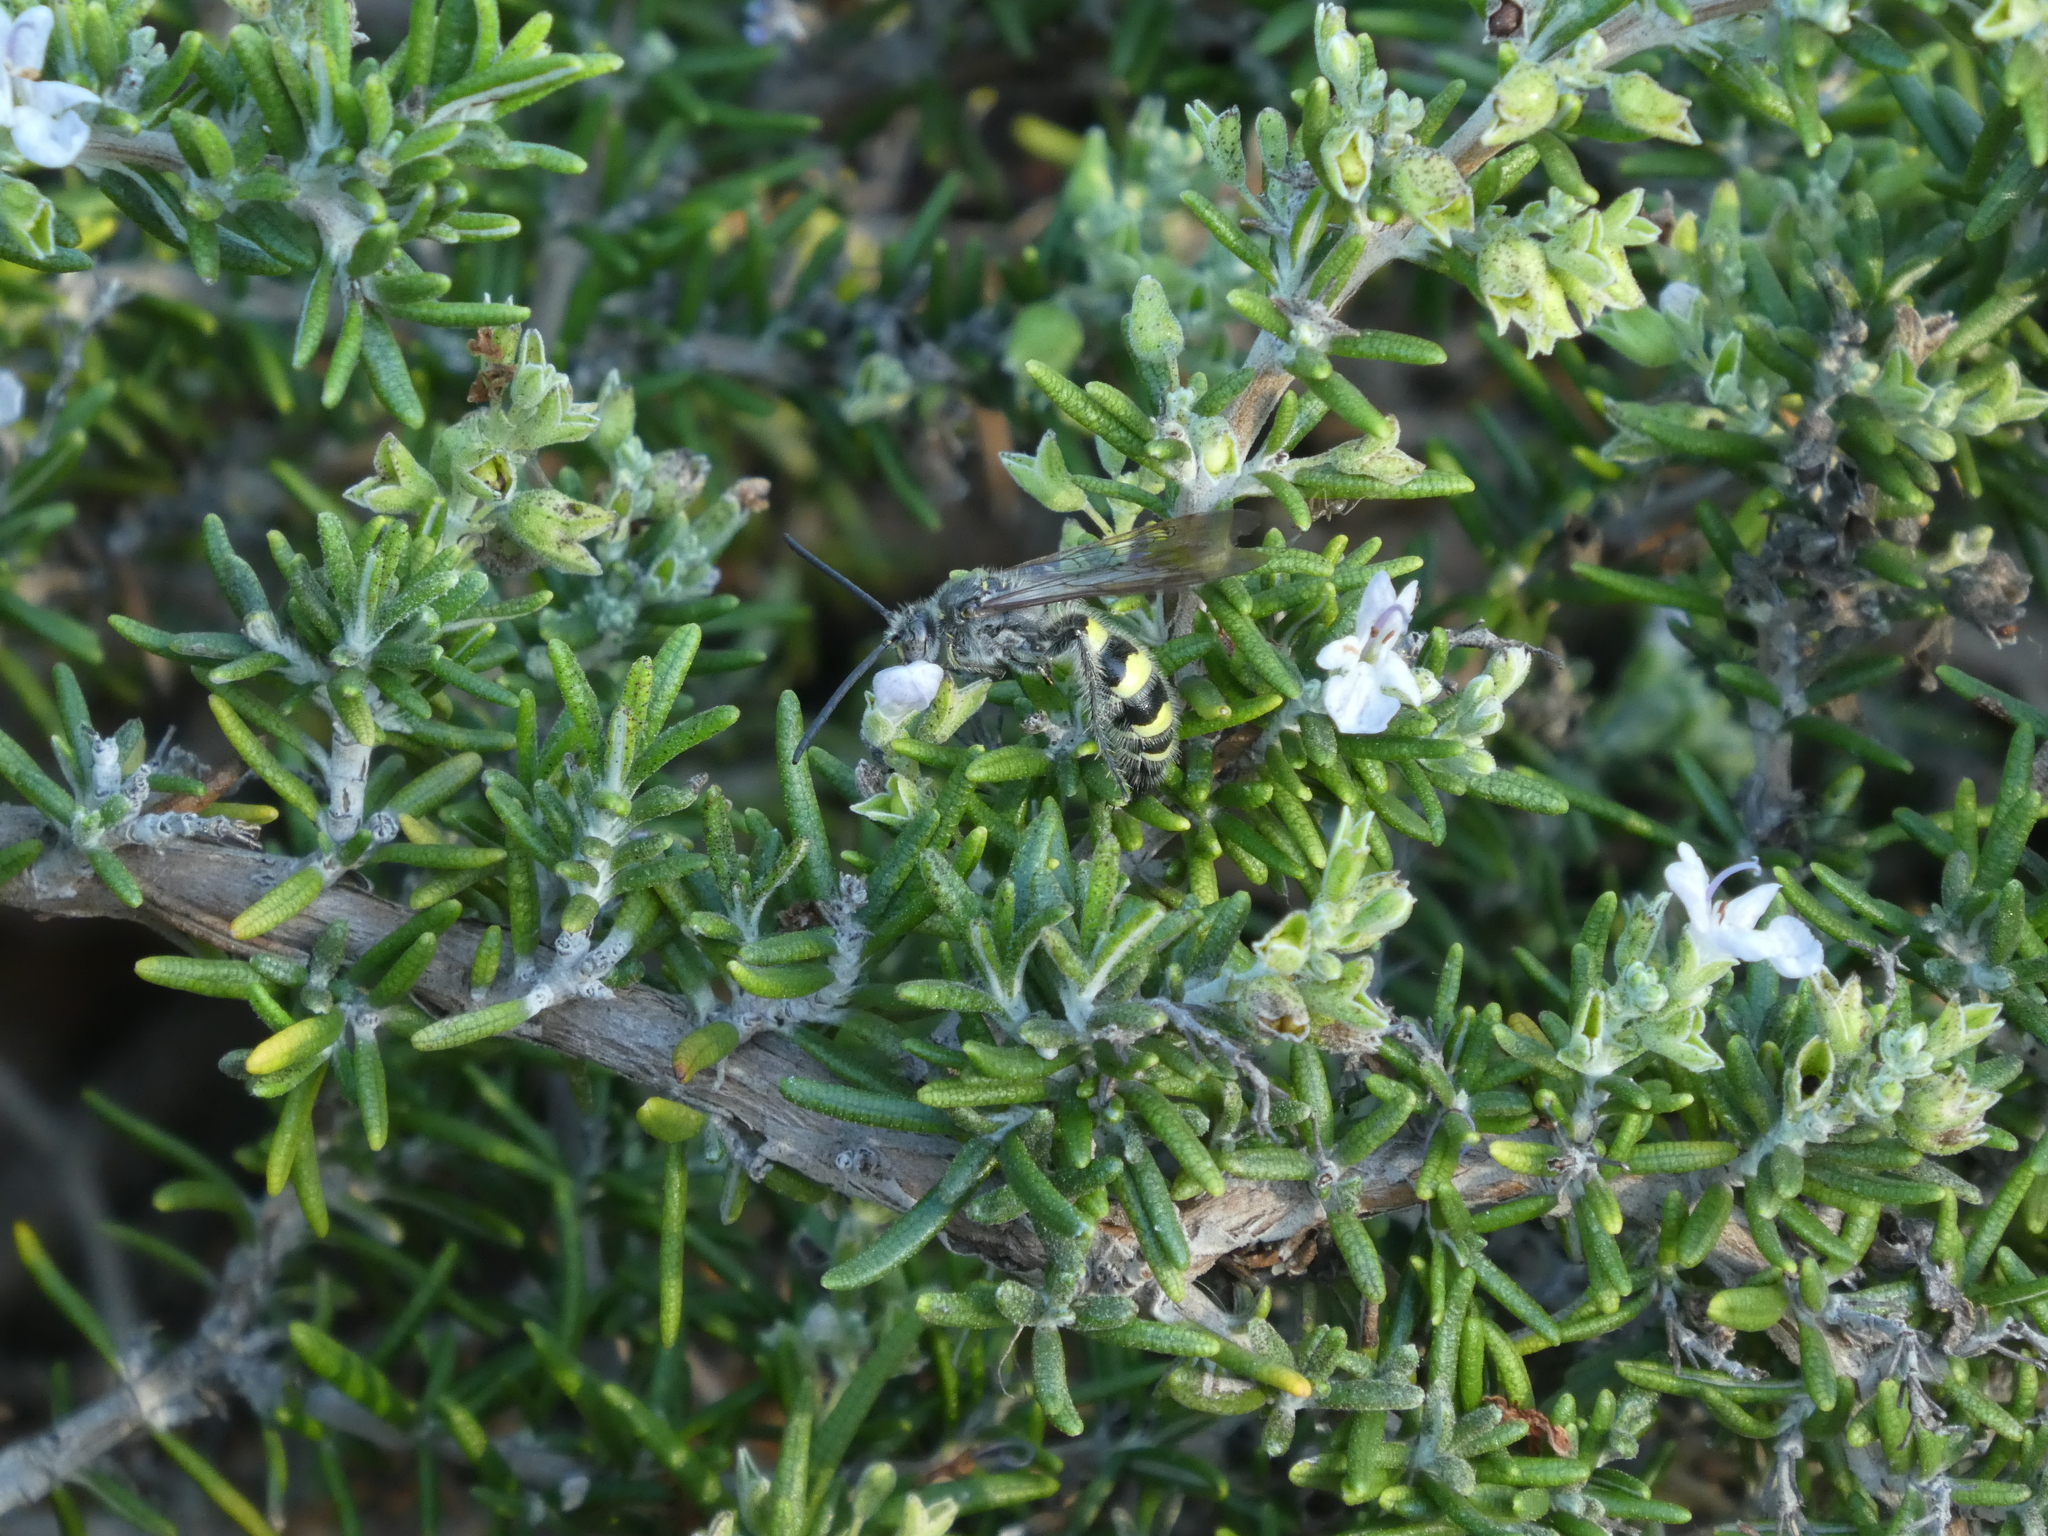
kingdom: Animalia
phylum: Arthropoda
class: Insecta
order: Hymenoptera
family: Scoliidae
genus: Dielis
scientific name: Dielis tolteca
